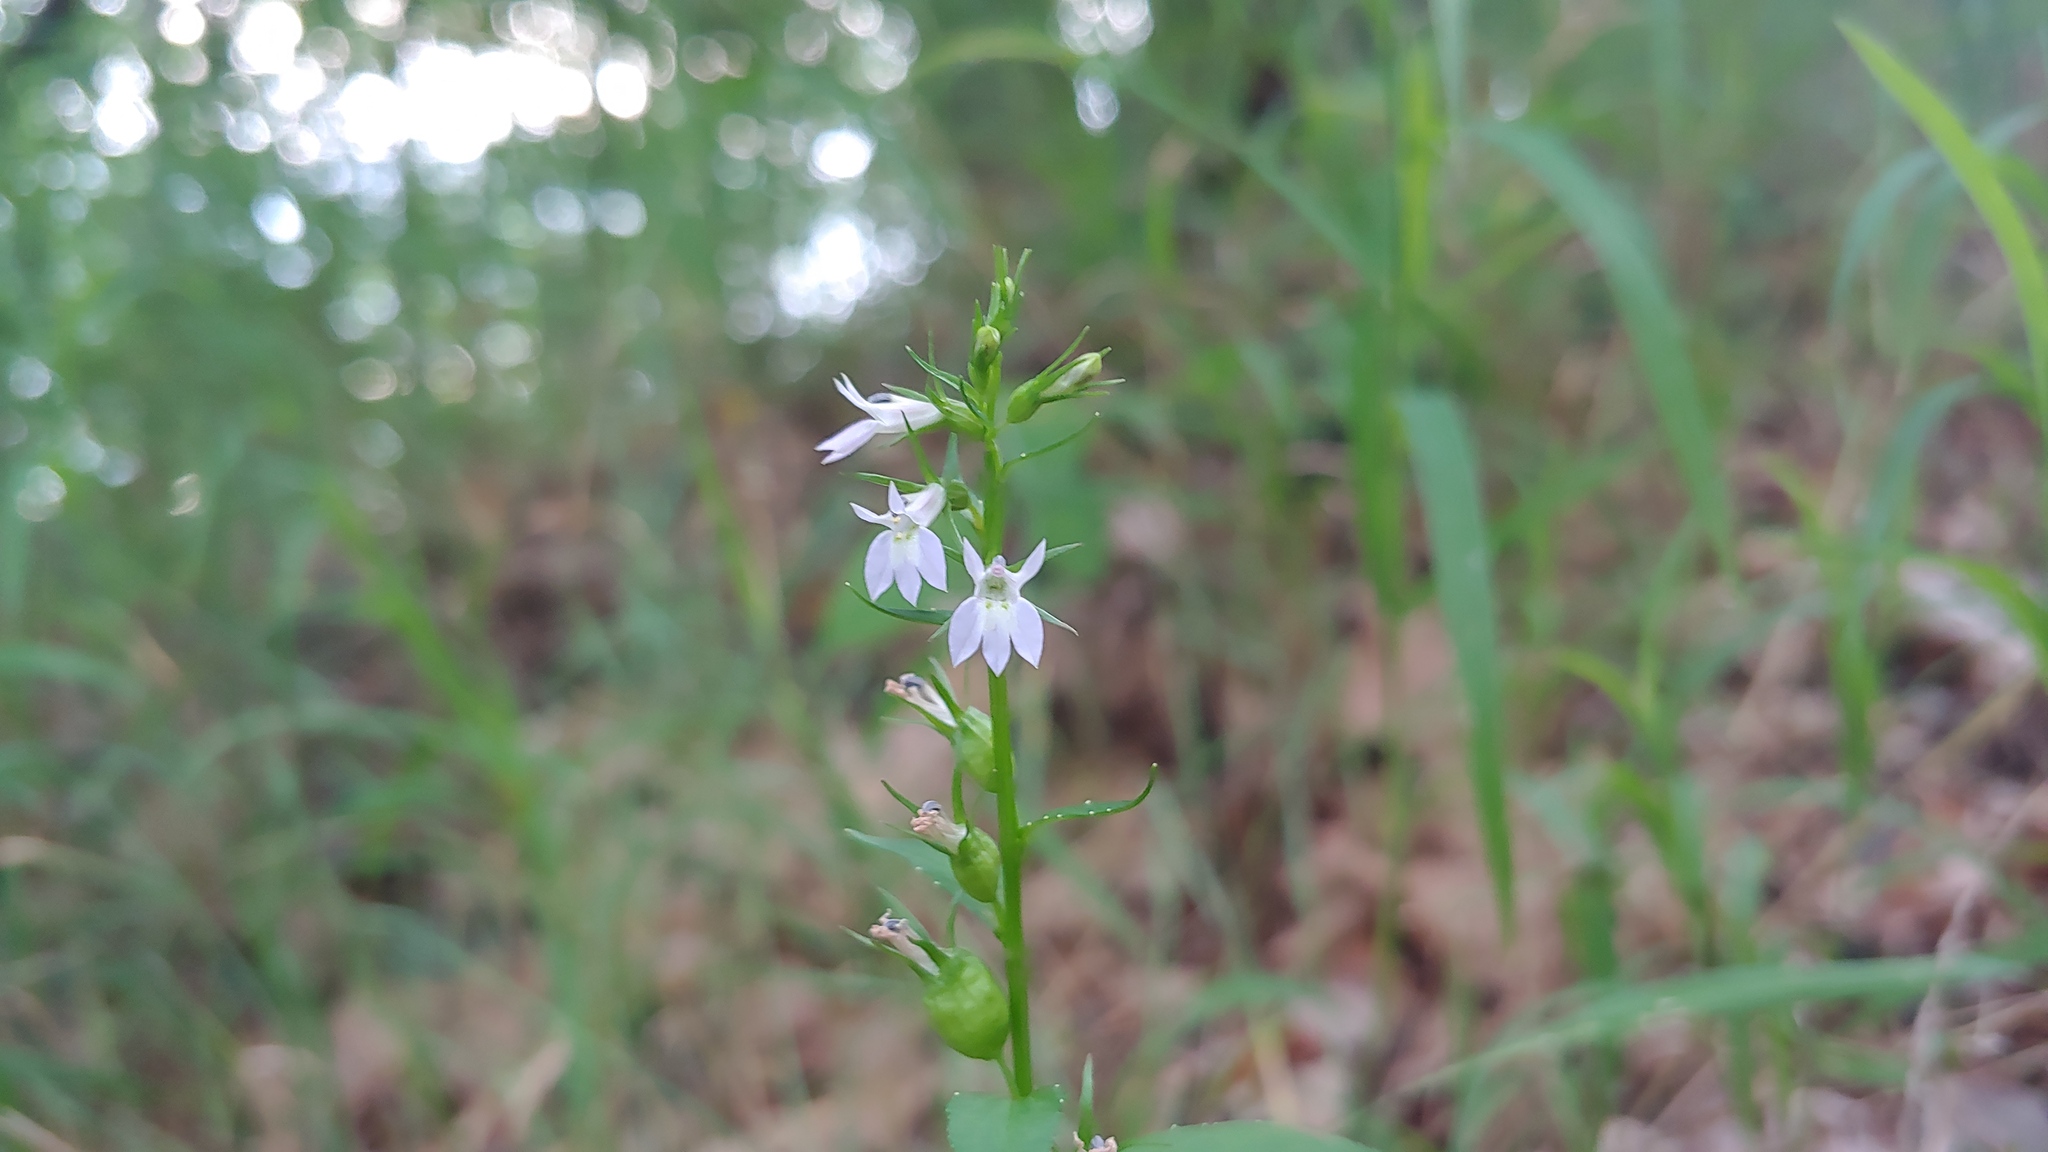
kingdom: Plantae
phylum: Tracheophyta
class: Magnoliopsida
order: Asterales
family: Campanulaceae
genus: Lobelia
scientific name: Lobelia inflata
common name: Indian tobacco
